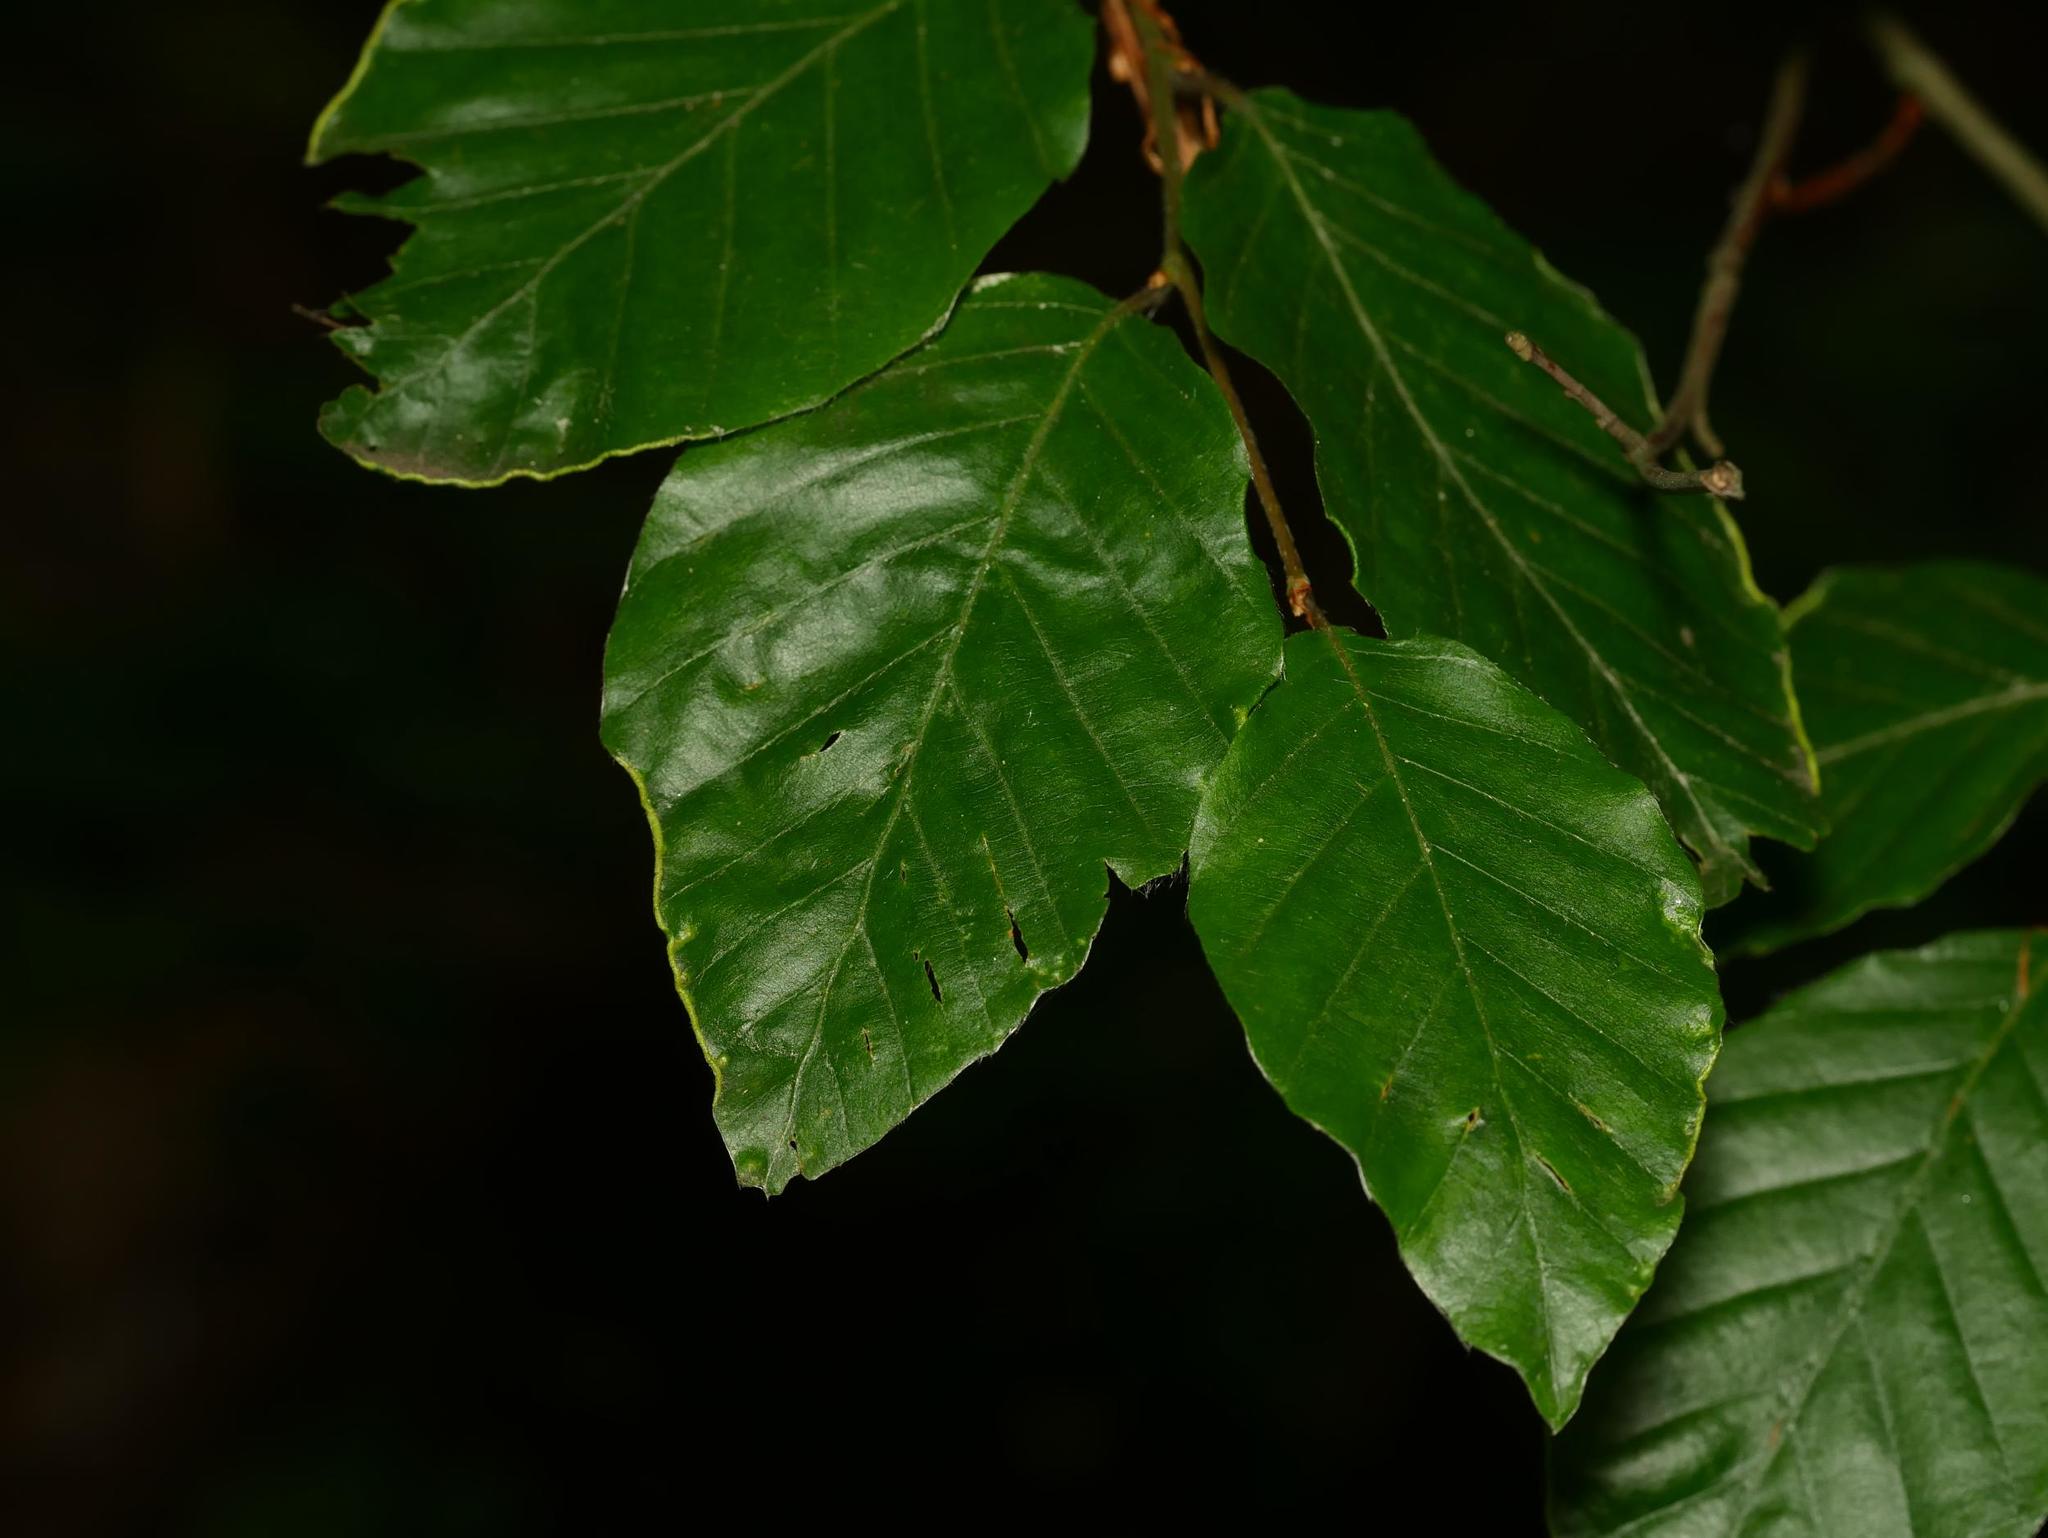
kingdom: Plantae
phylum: Tracheophyta
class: Magnoliopsida
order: Fagales
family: Fagaceae
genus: Fagus
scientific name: Fagus sylvatica
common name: Beech
